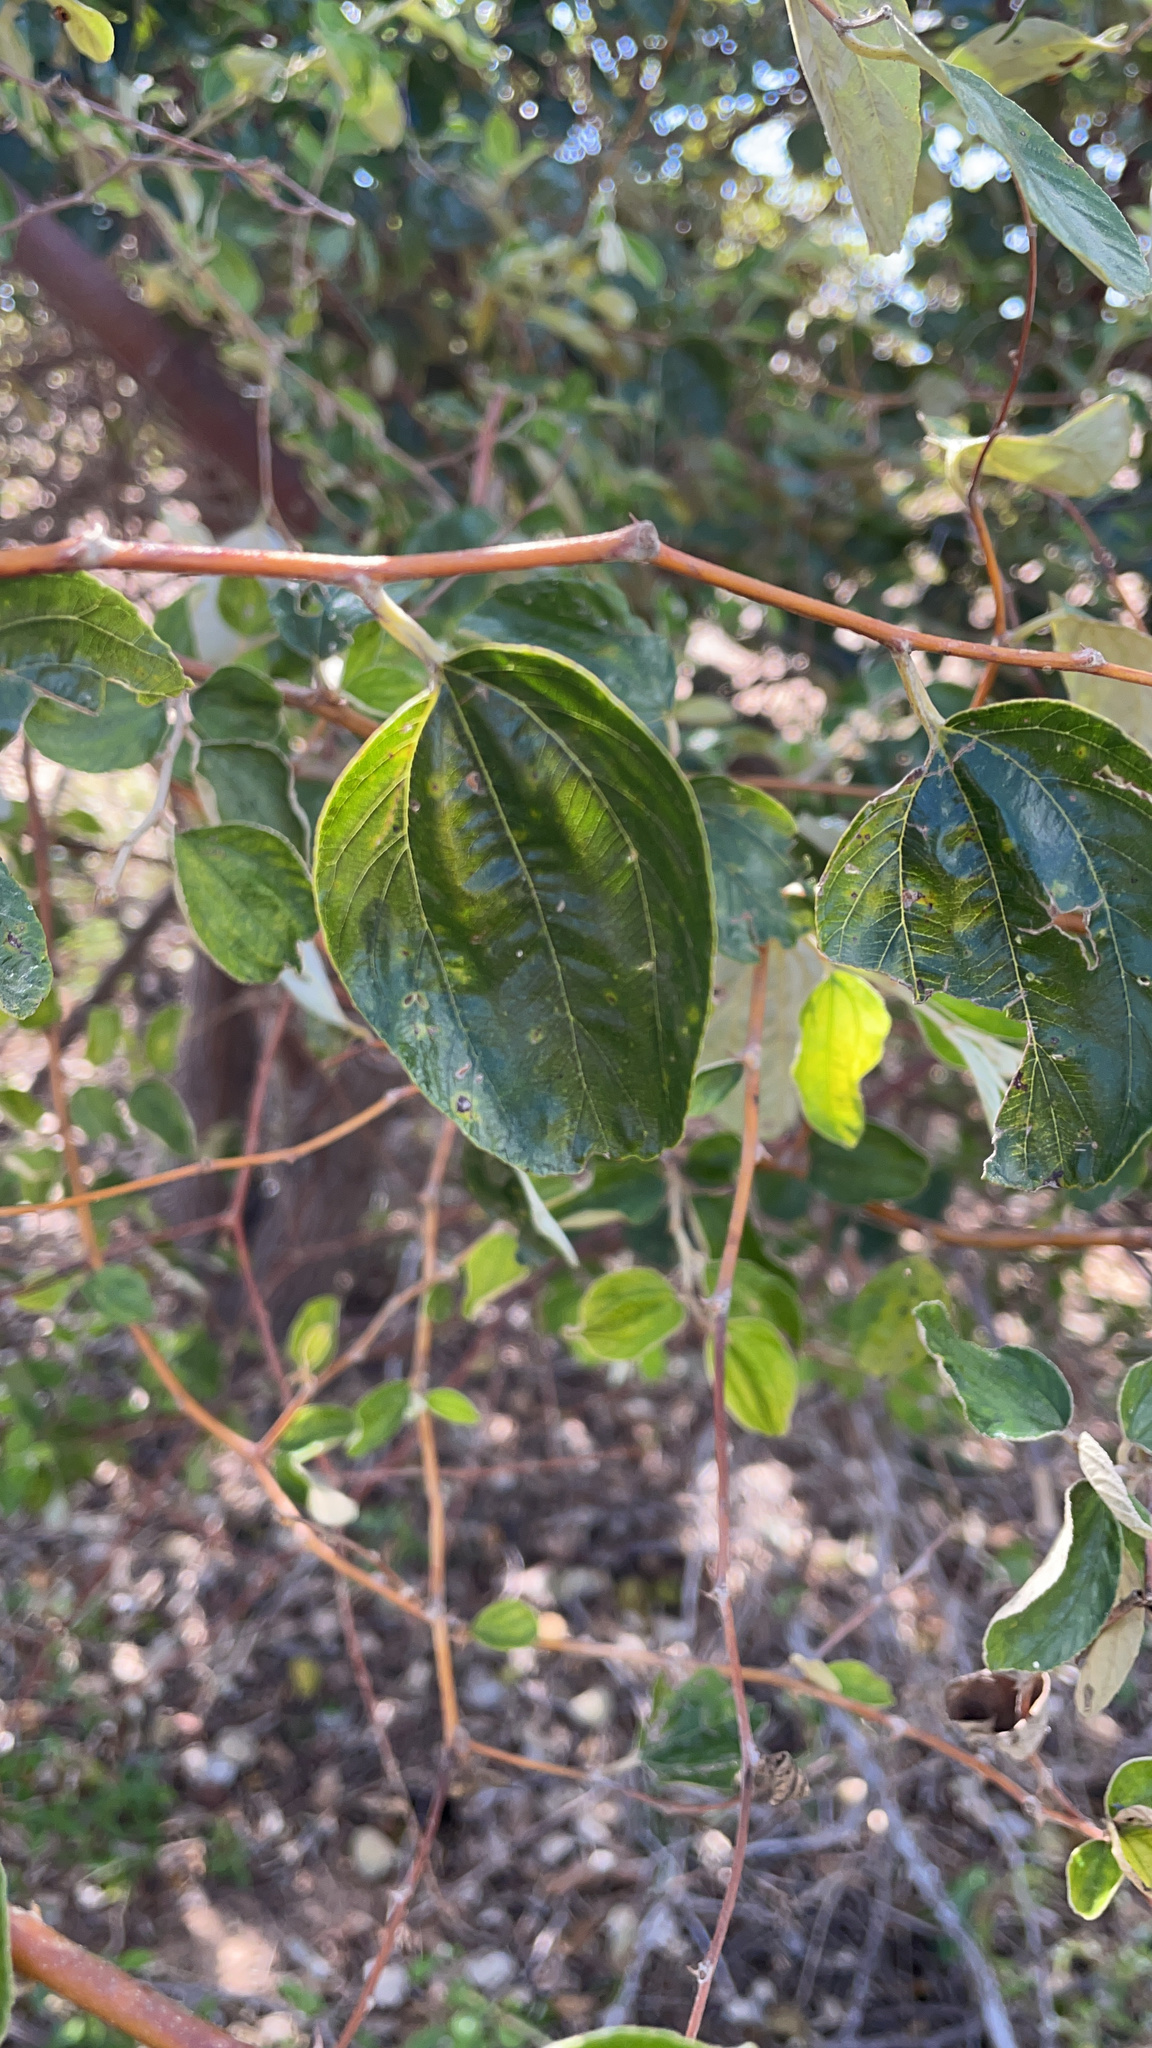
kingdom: Plantae
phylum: Tracheophyta
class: Magnoliopsida
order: Rosales
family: Rhamnaceae
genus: Ziziphus
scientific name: Ziziphus mauritiana
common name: Indian jujube
